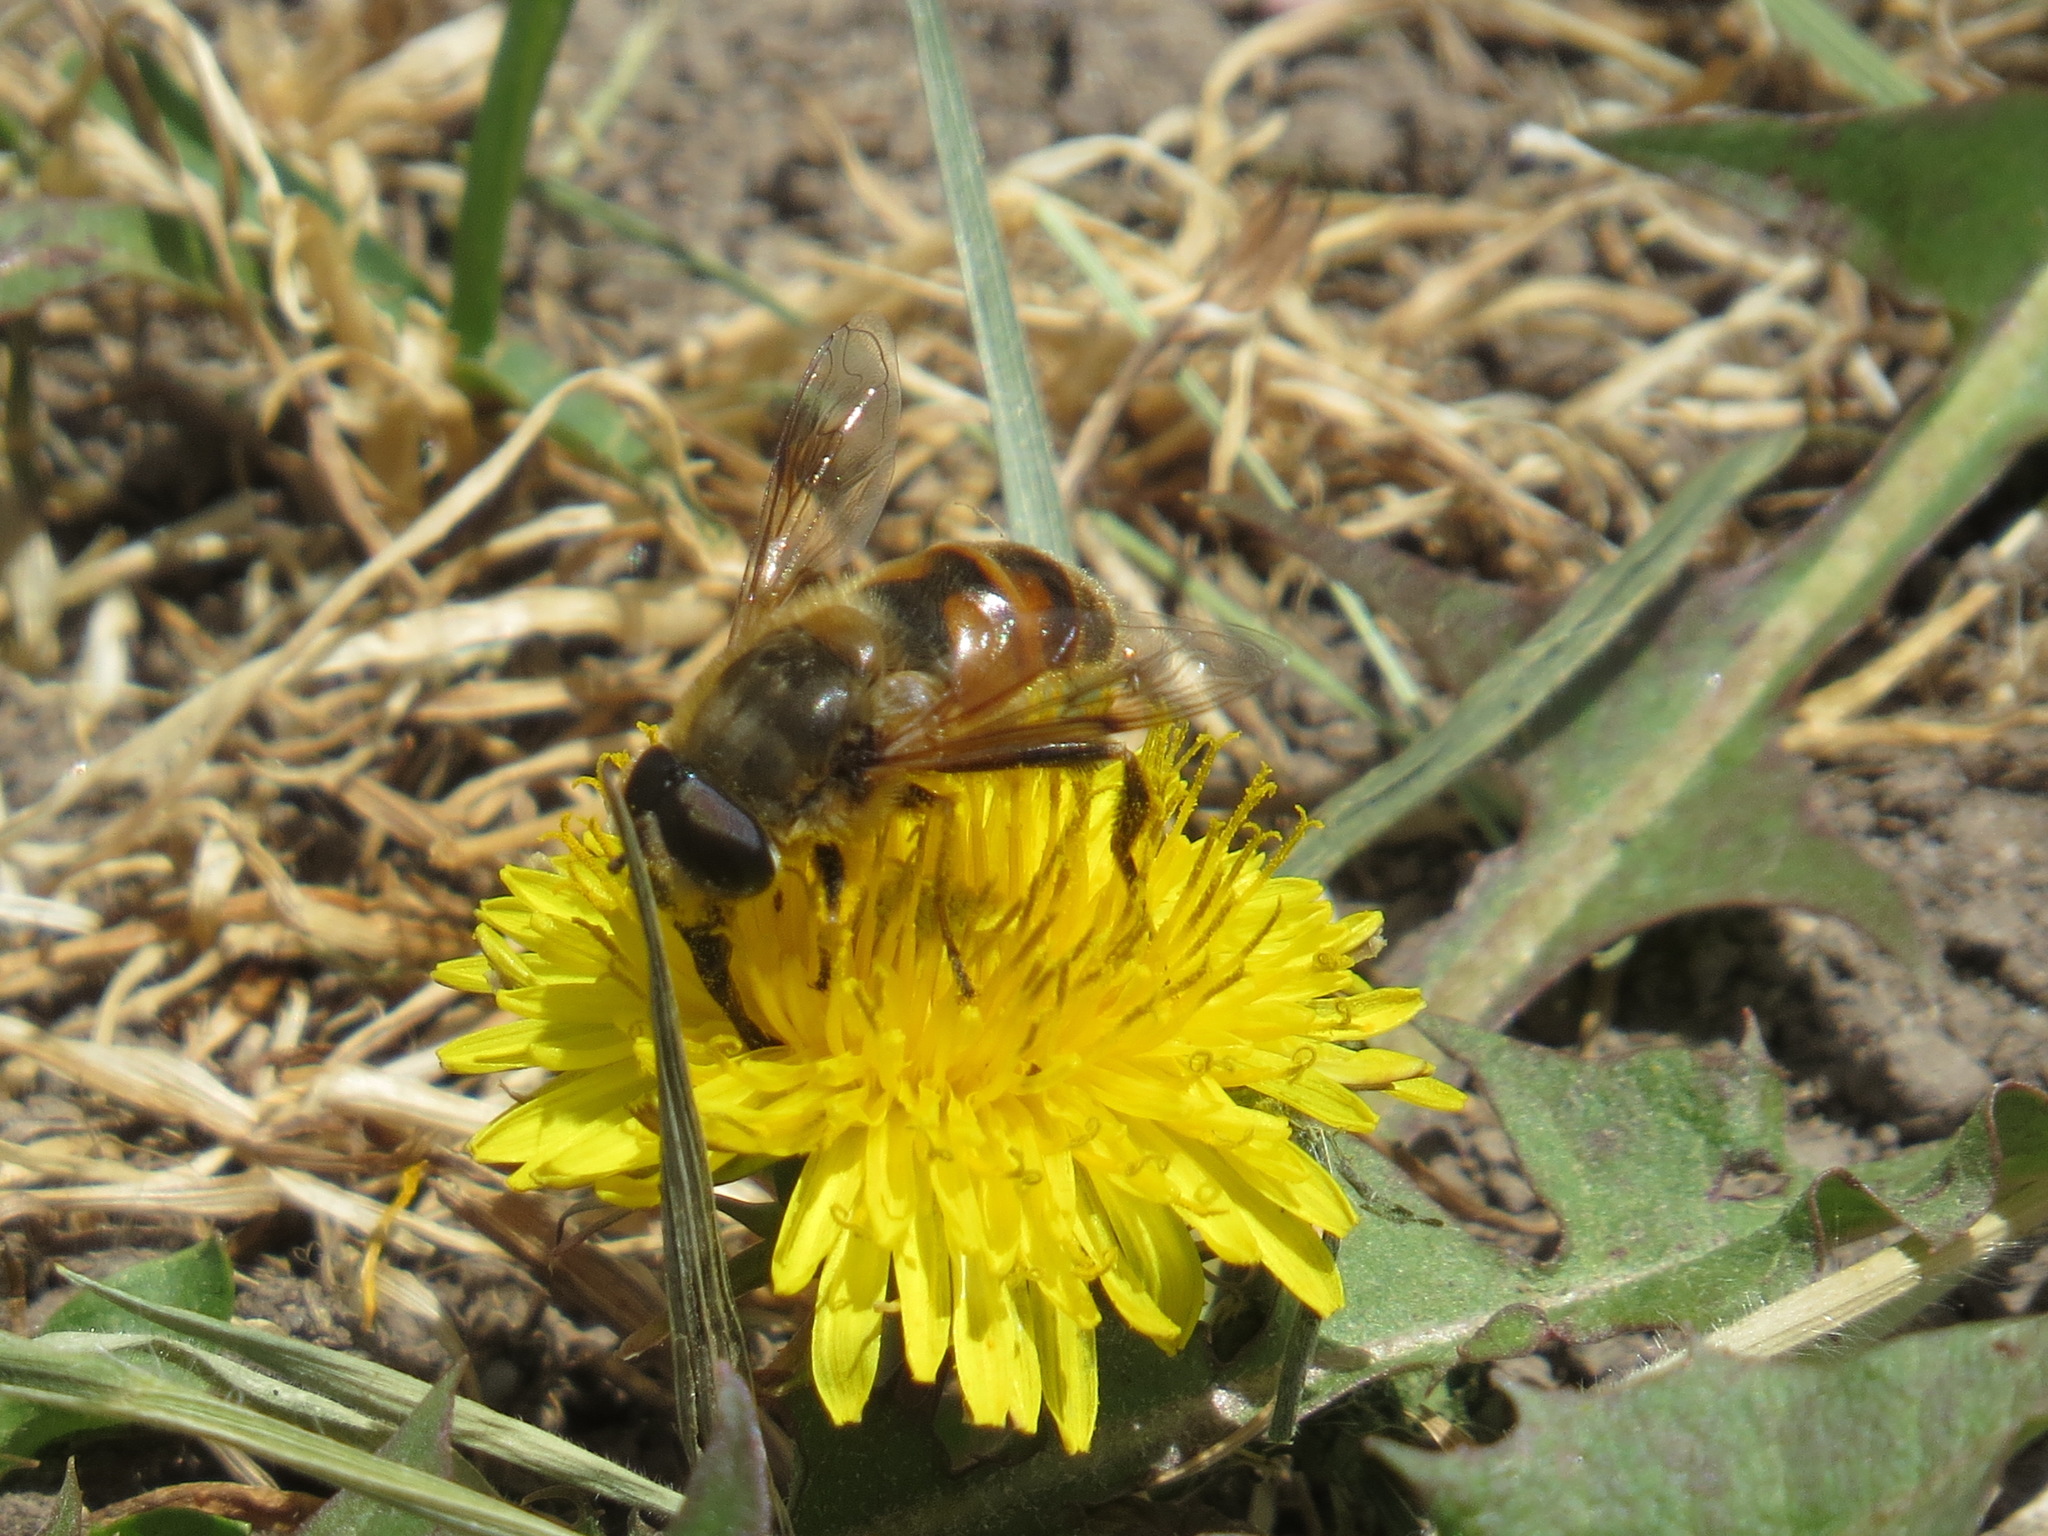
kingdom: Animalia
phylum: Arthropoda
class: Insecta
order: Diptera
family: Syrphidae
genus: Eristalis
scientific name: Eristalis tenax
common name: Drone fly
